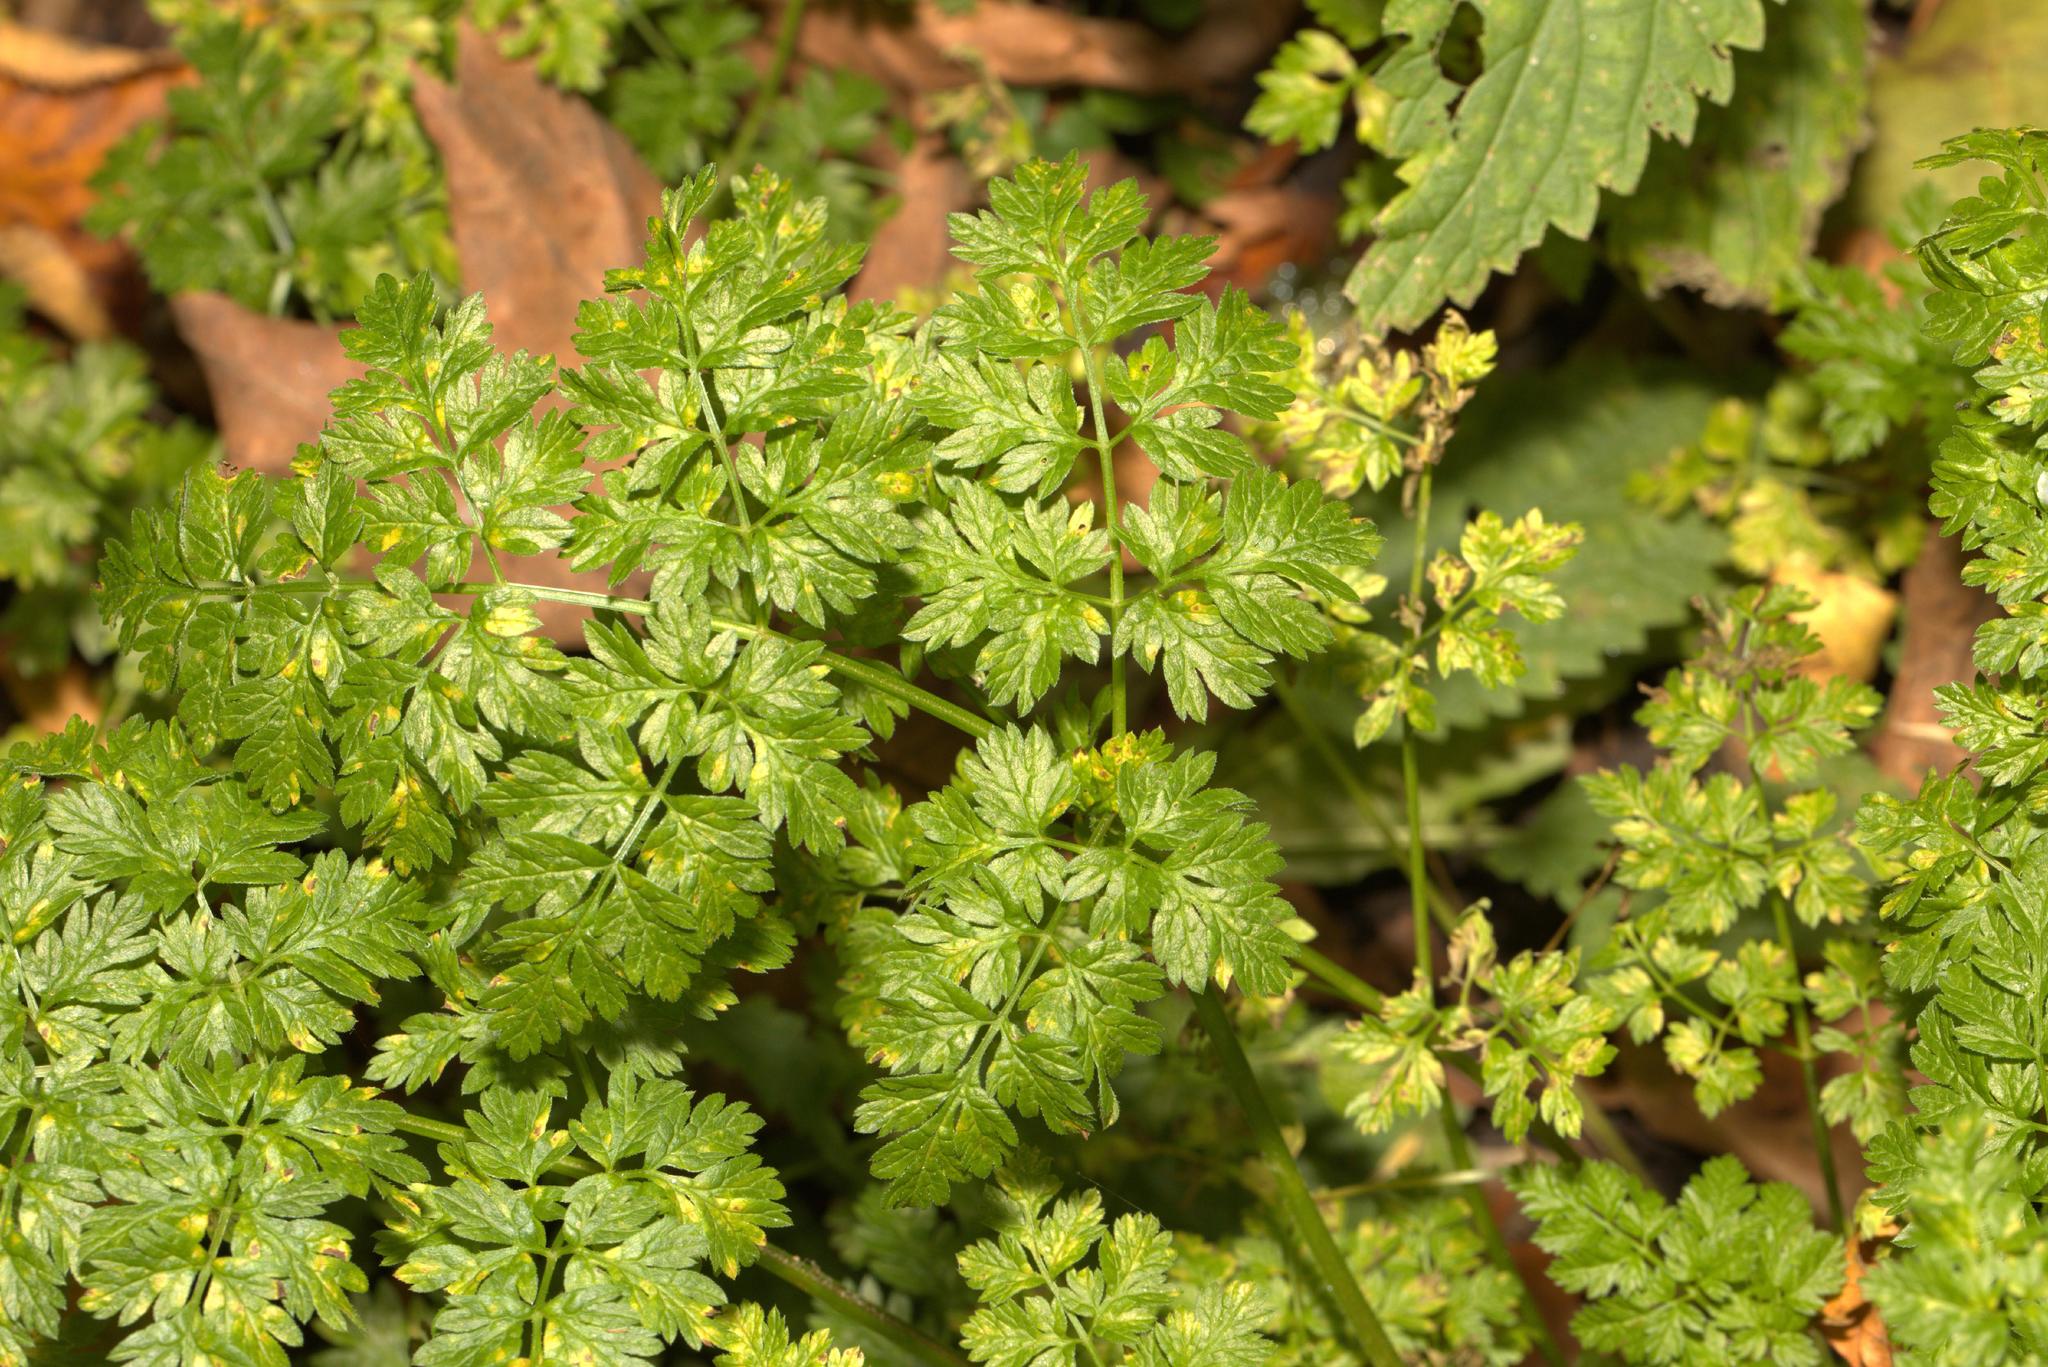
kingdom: Plantae
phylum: Tracheophyta
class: Magnoliopsida
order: Apiales
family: Apiaceae
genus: Anthriscus
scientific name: Anthriscus sylvestris
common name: Cow parsley
